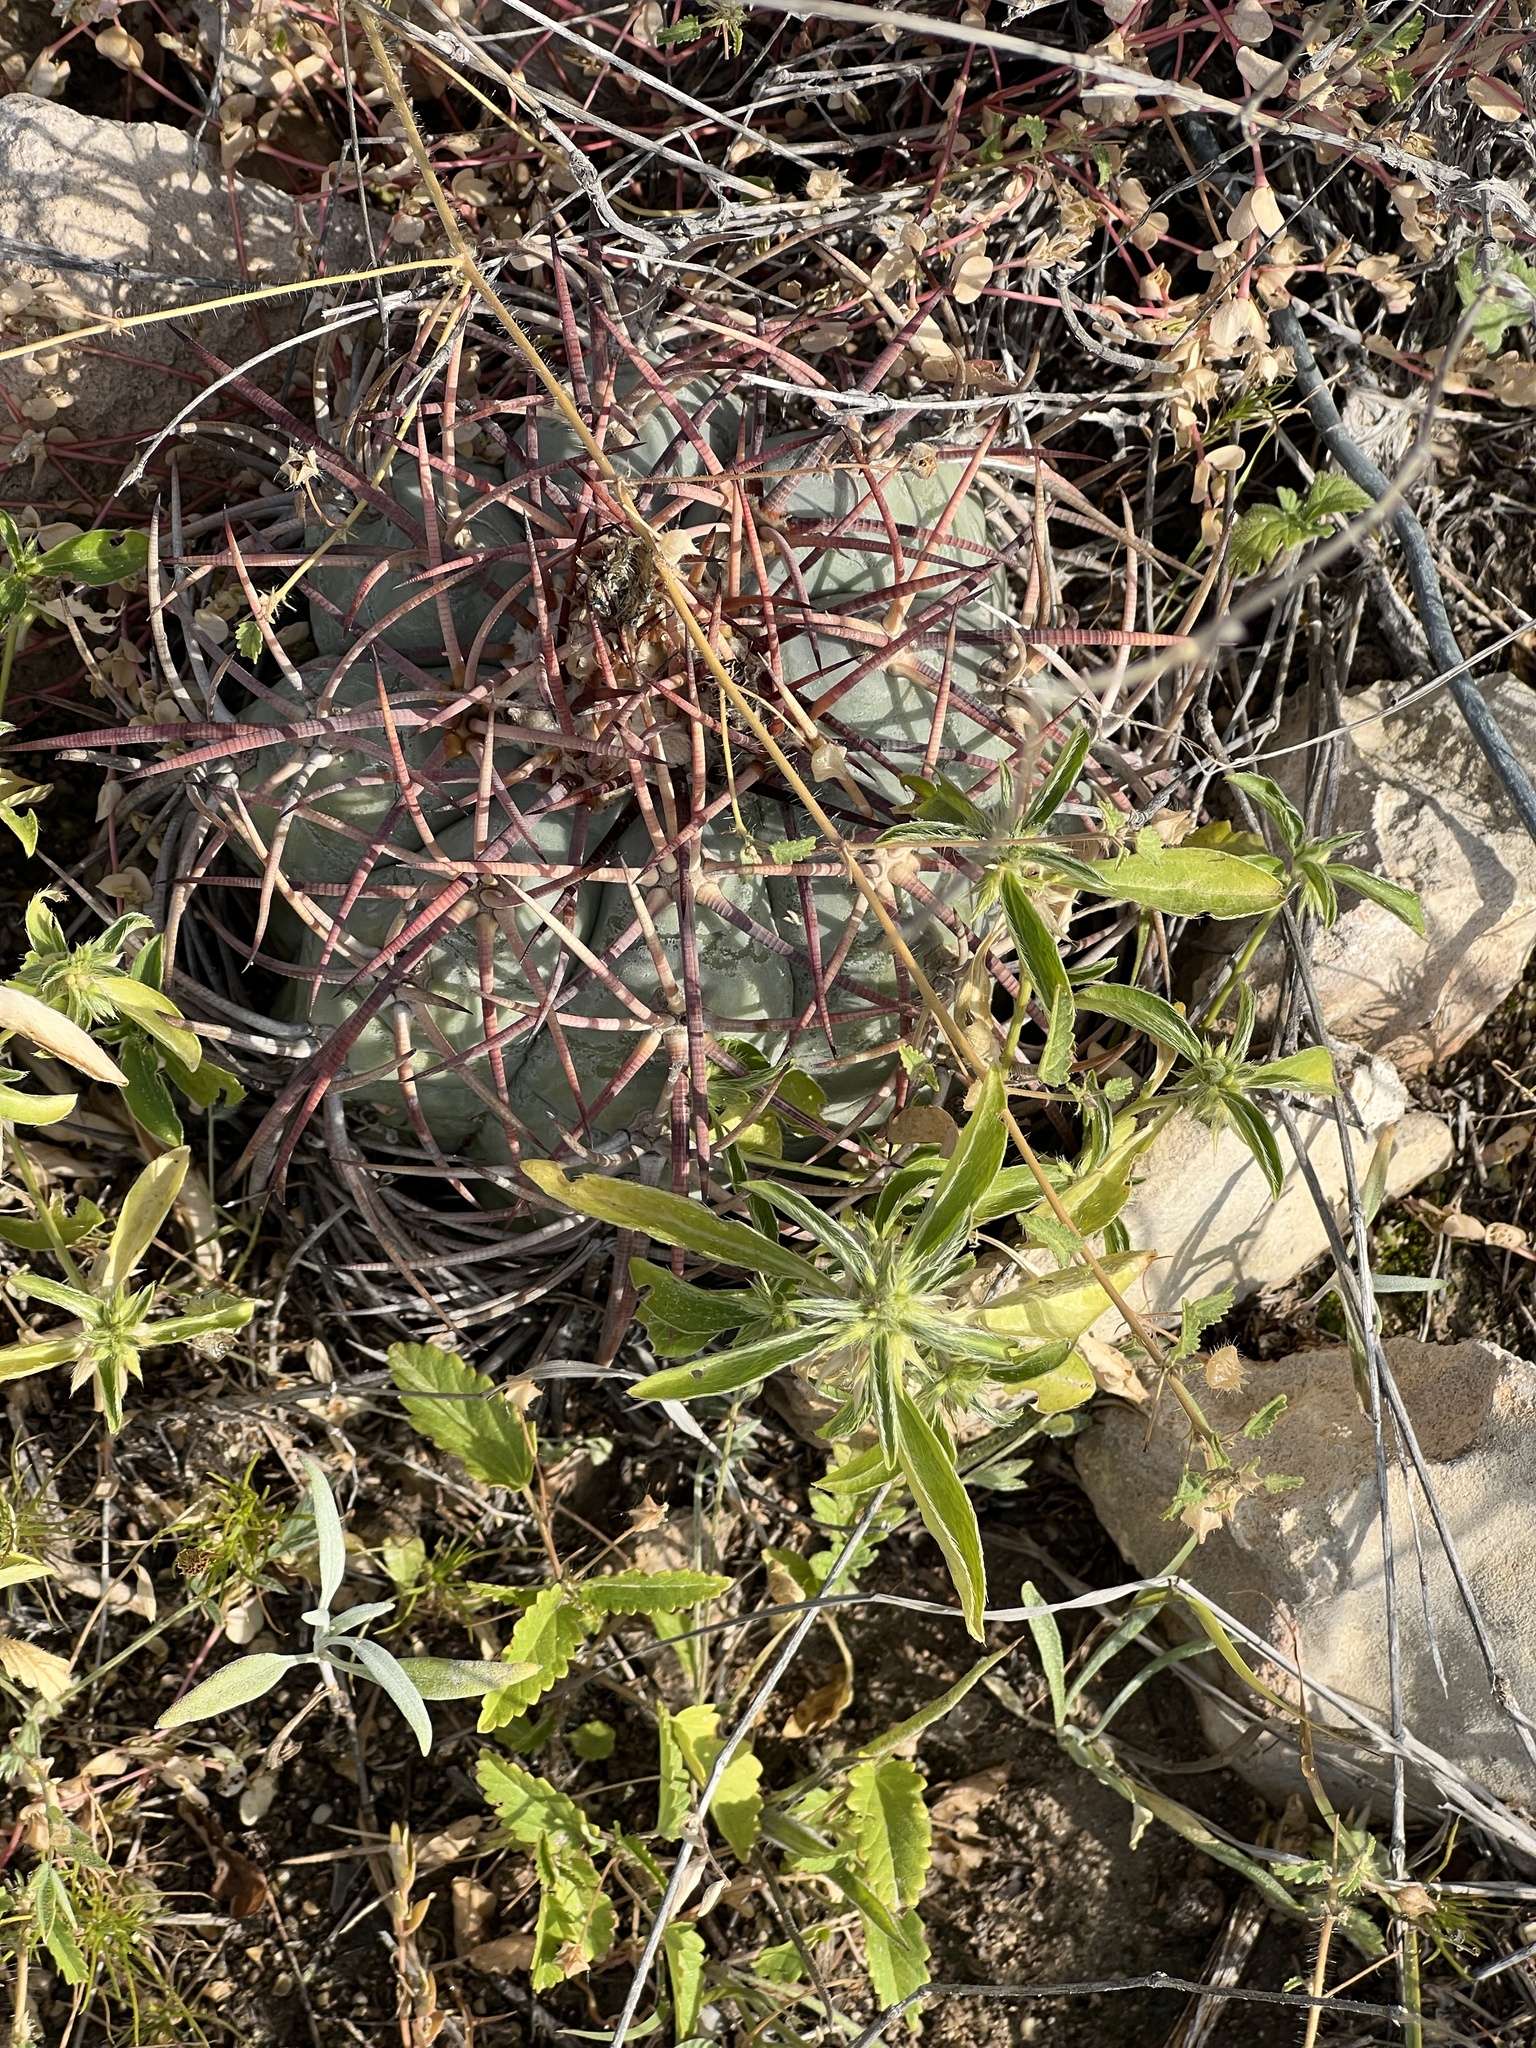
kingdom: Plantae
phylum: Tracheophyta
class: Magnoliopsida
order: Caryophyllales
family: Cactaceae
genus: Echinocactus
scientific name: Echinocactus horizonthalonius
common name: Devilshead
